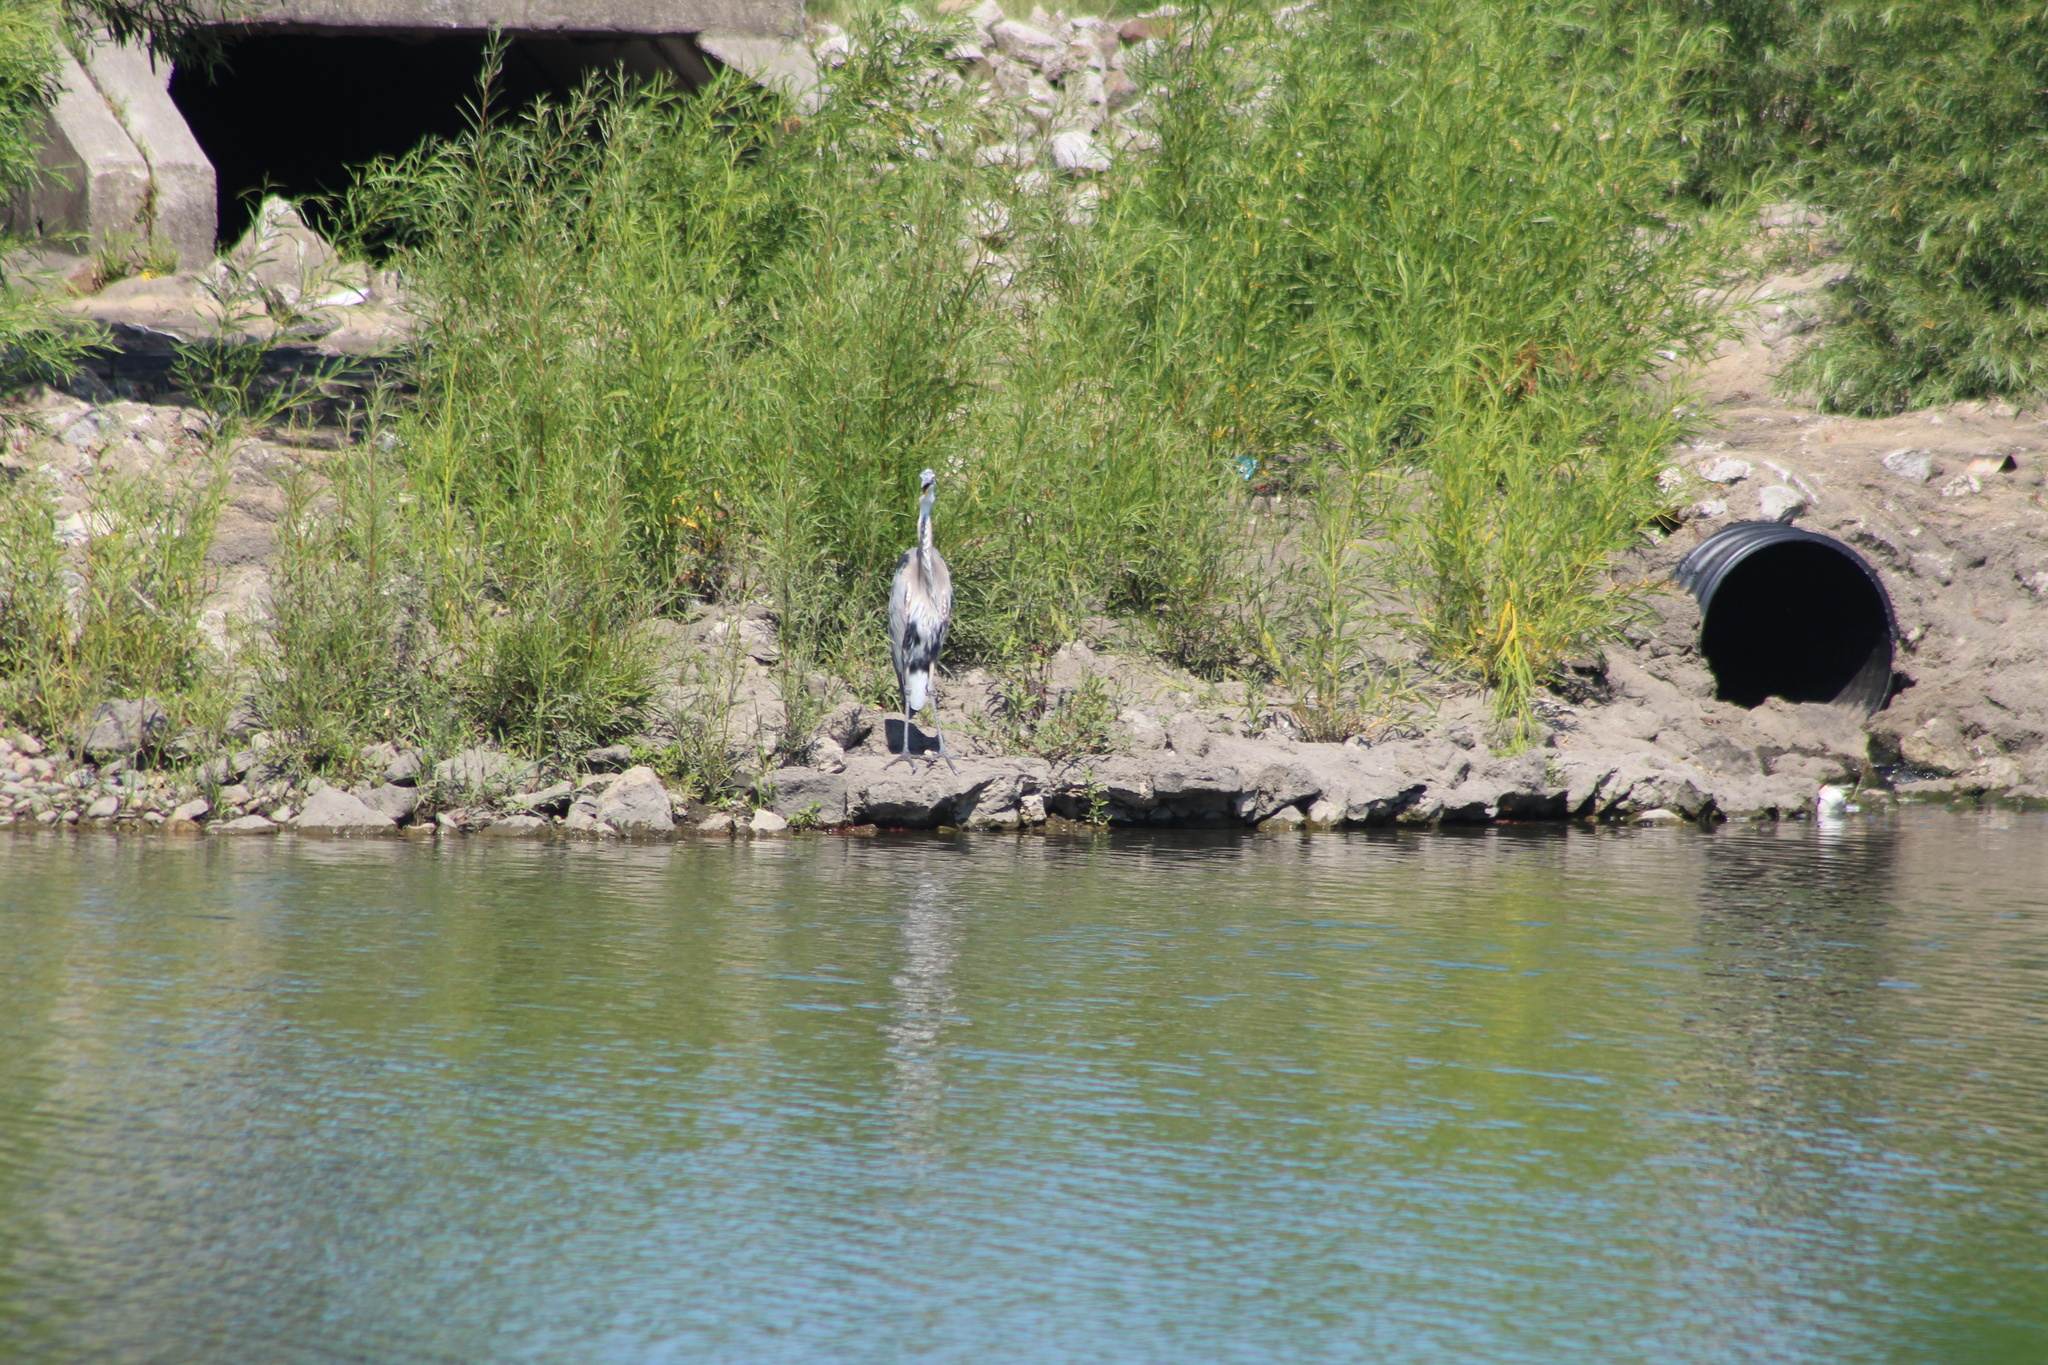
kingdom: Animalia
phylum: Chordata
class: Aves
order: Pelecaniformes
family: Ardeidae
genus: Ardea
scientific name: Ardea herodias
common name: Great blue heron
